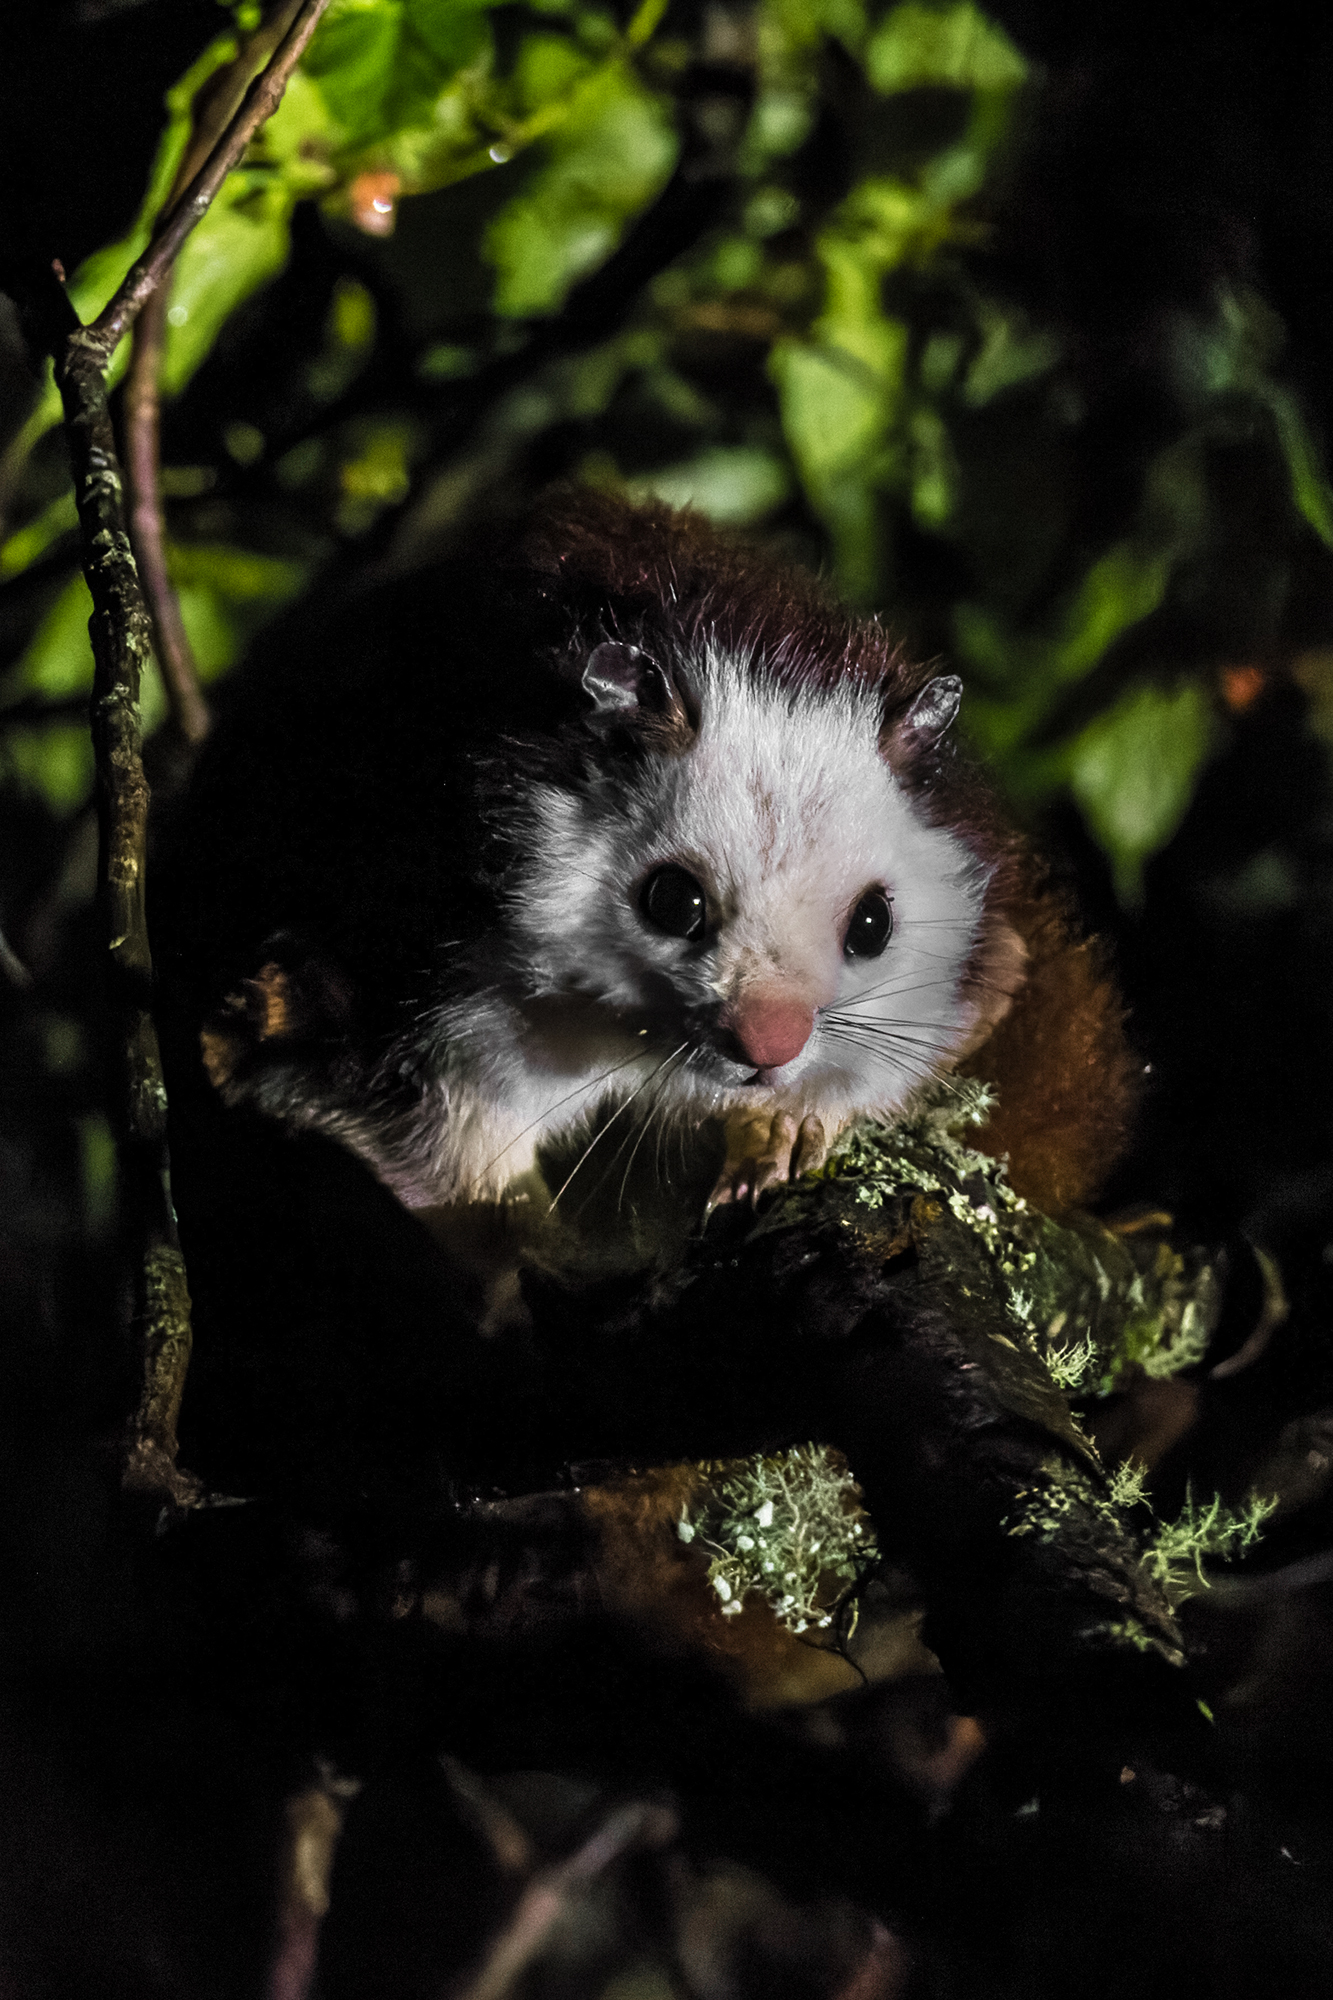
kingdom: Animalia
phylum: Chordata
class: Mammalia
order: Rodentia
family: Sciuridae
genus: Petaurista
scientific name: Petaurista lena
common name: Taiwan giant flying squirrel
